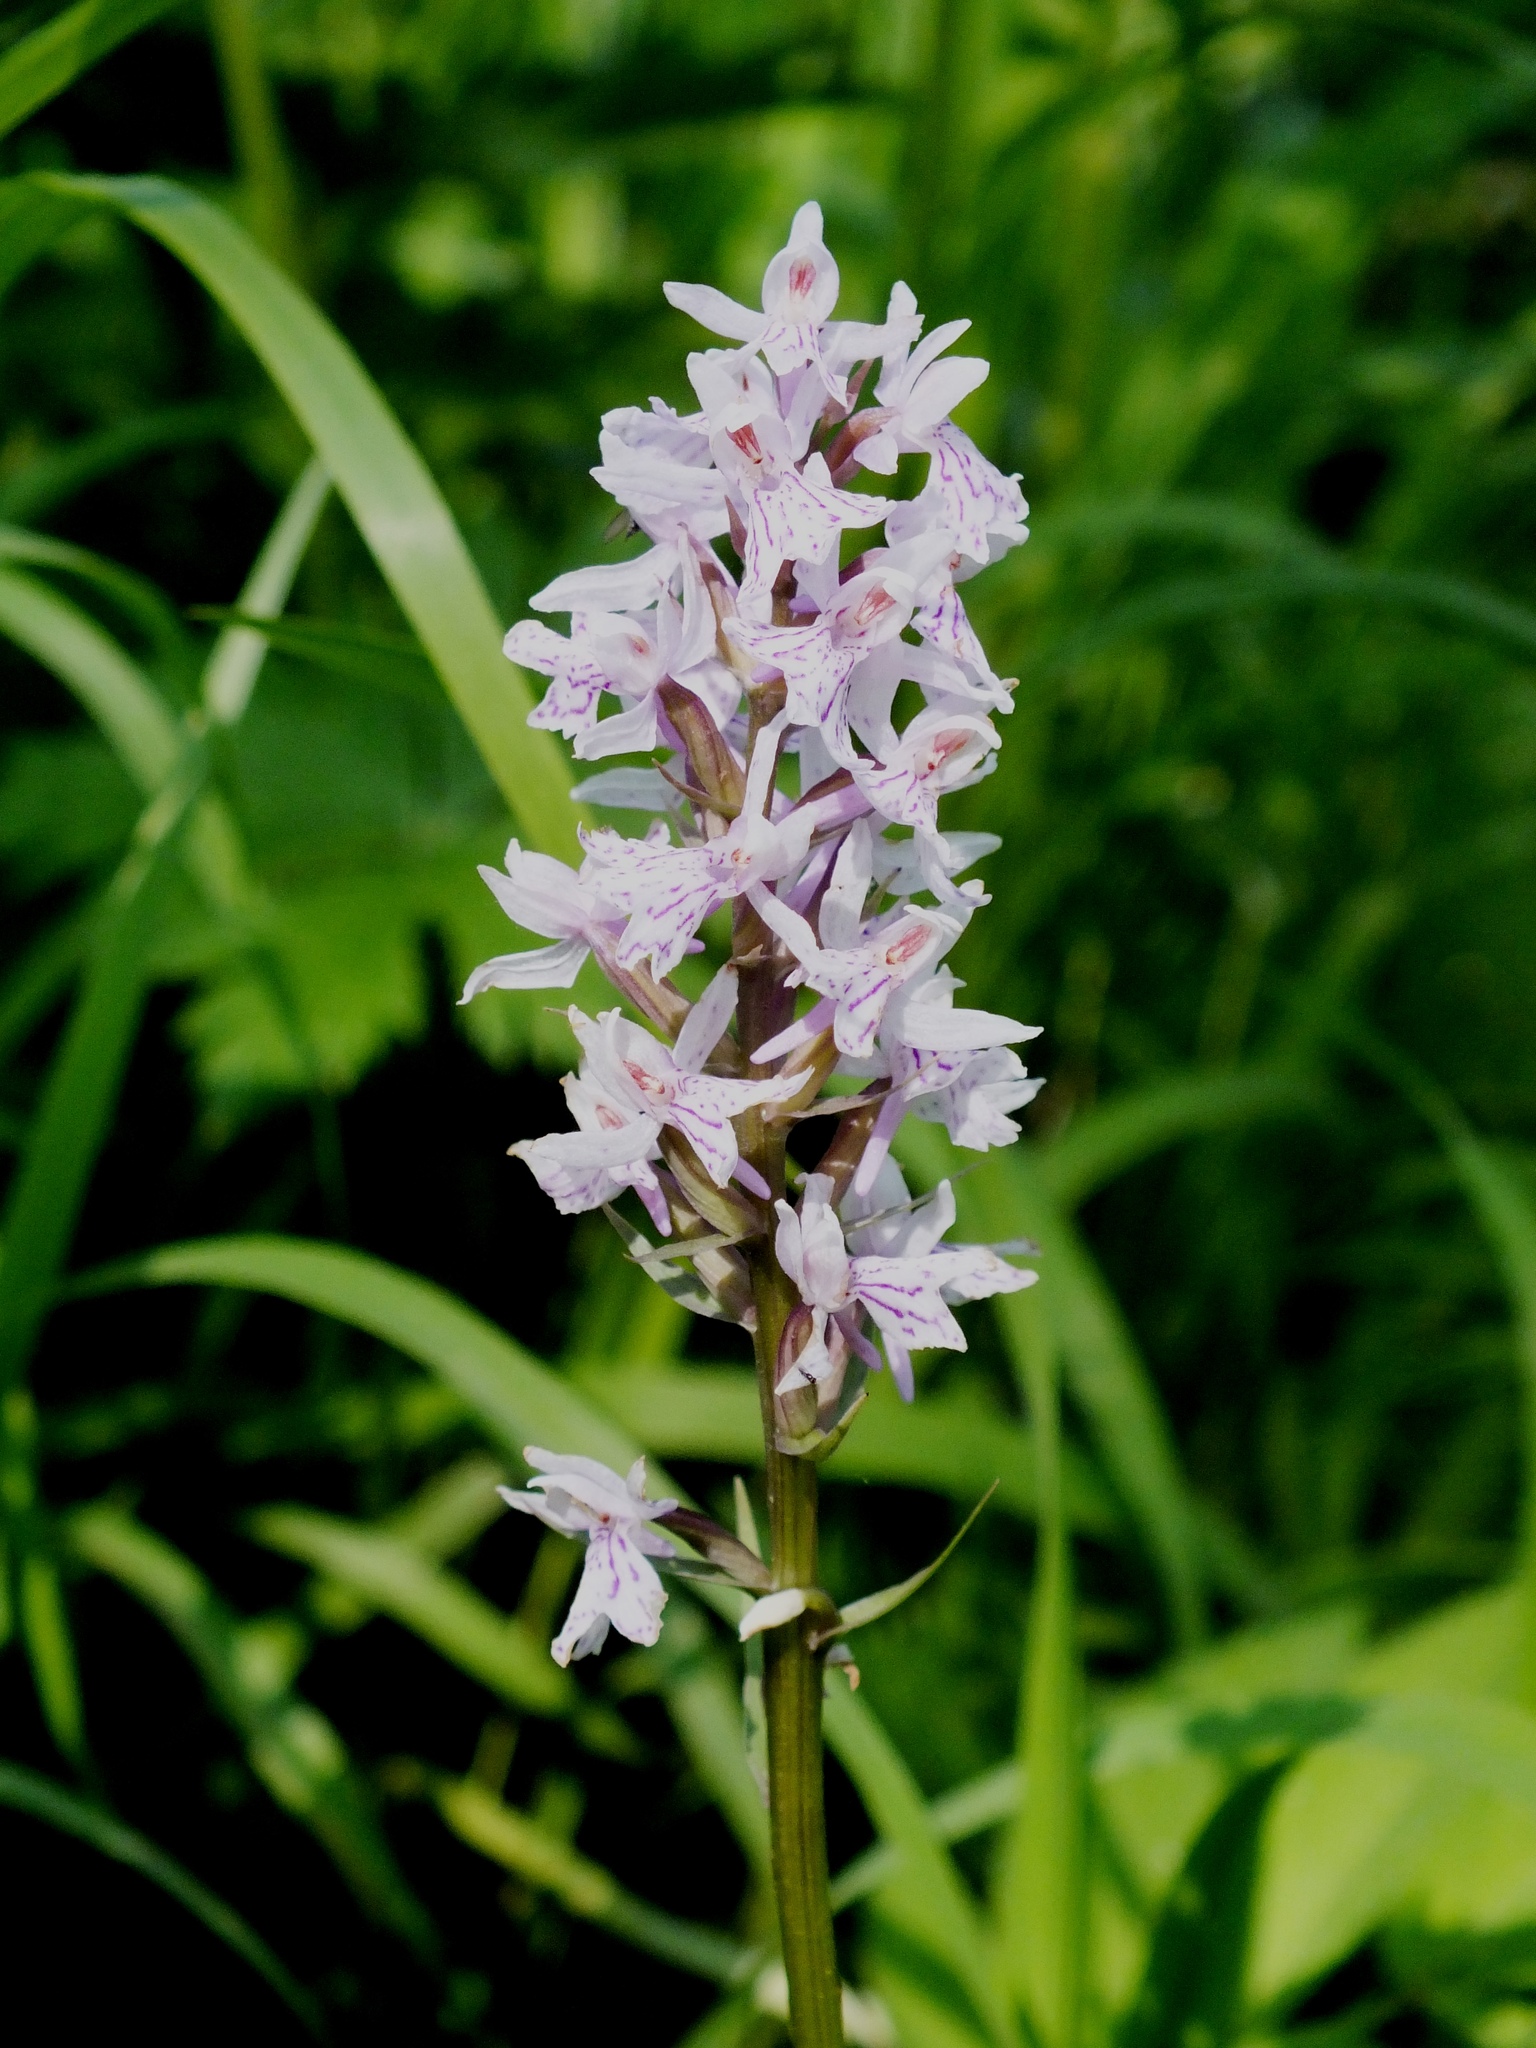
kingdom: Plantae
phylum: Tracheophyta
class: Liliopsida
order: Asparagales
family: Orchidaceae
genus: Dactylorhiza
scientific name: Dactylorhiza maculata
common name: Heath spotted-orchid
